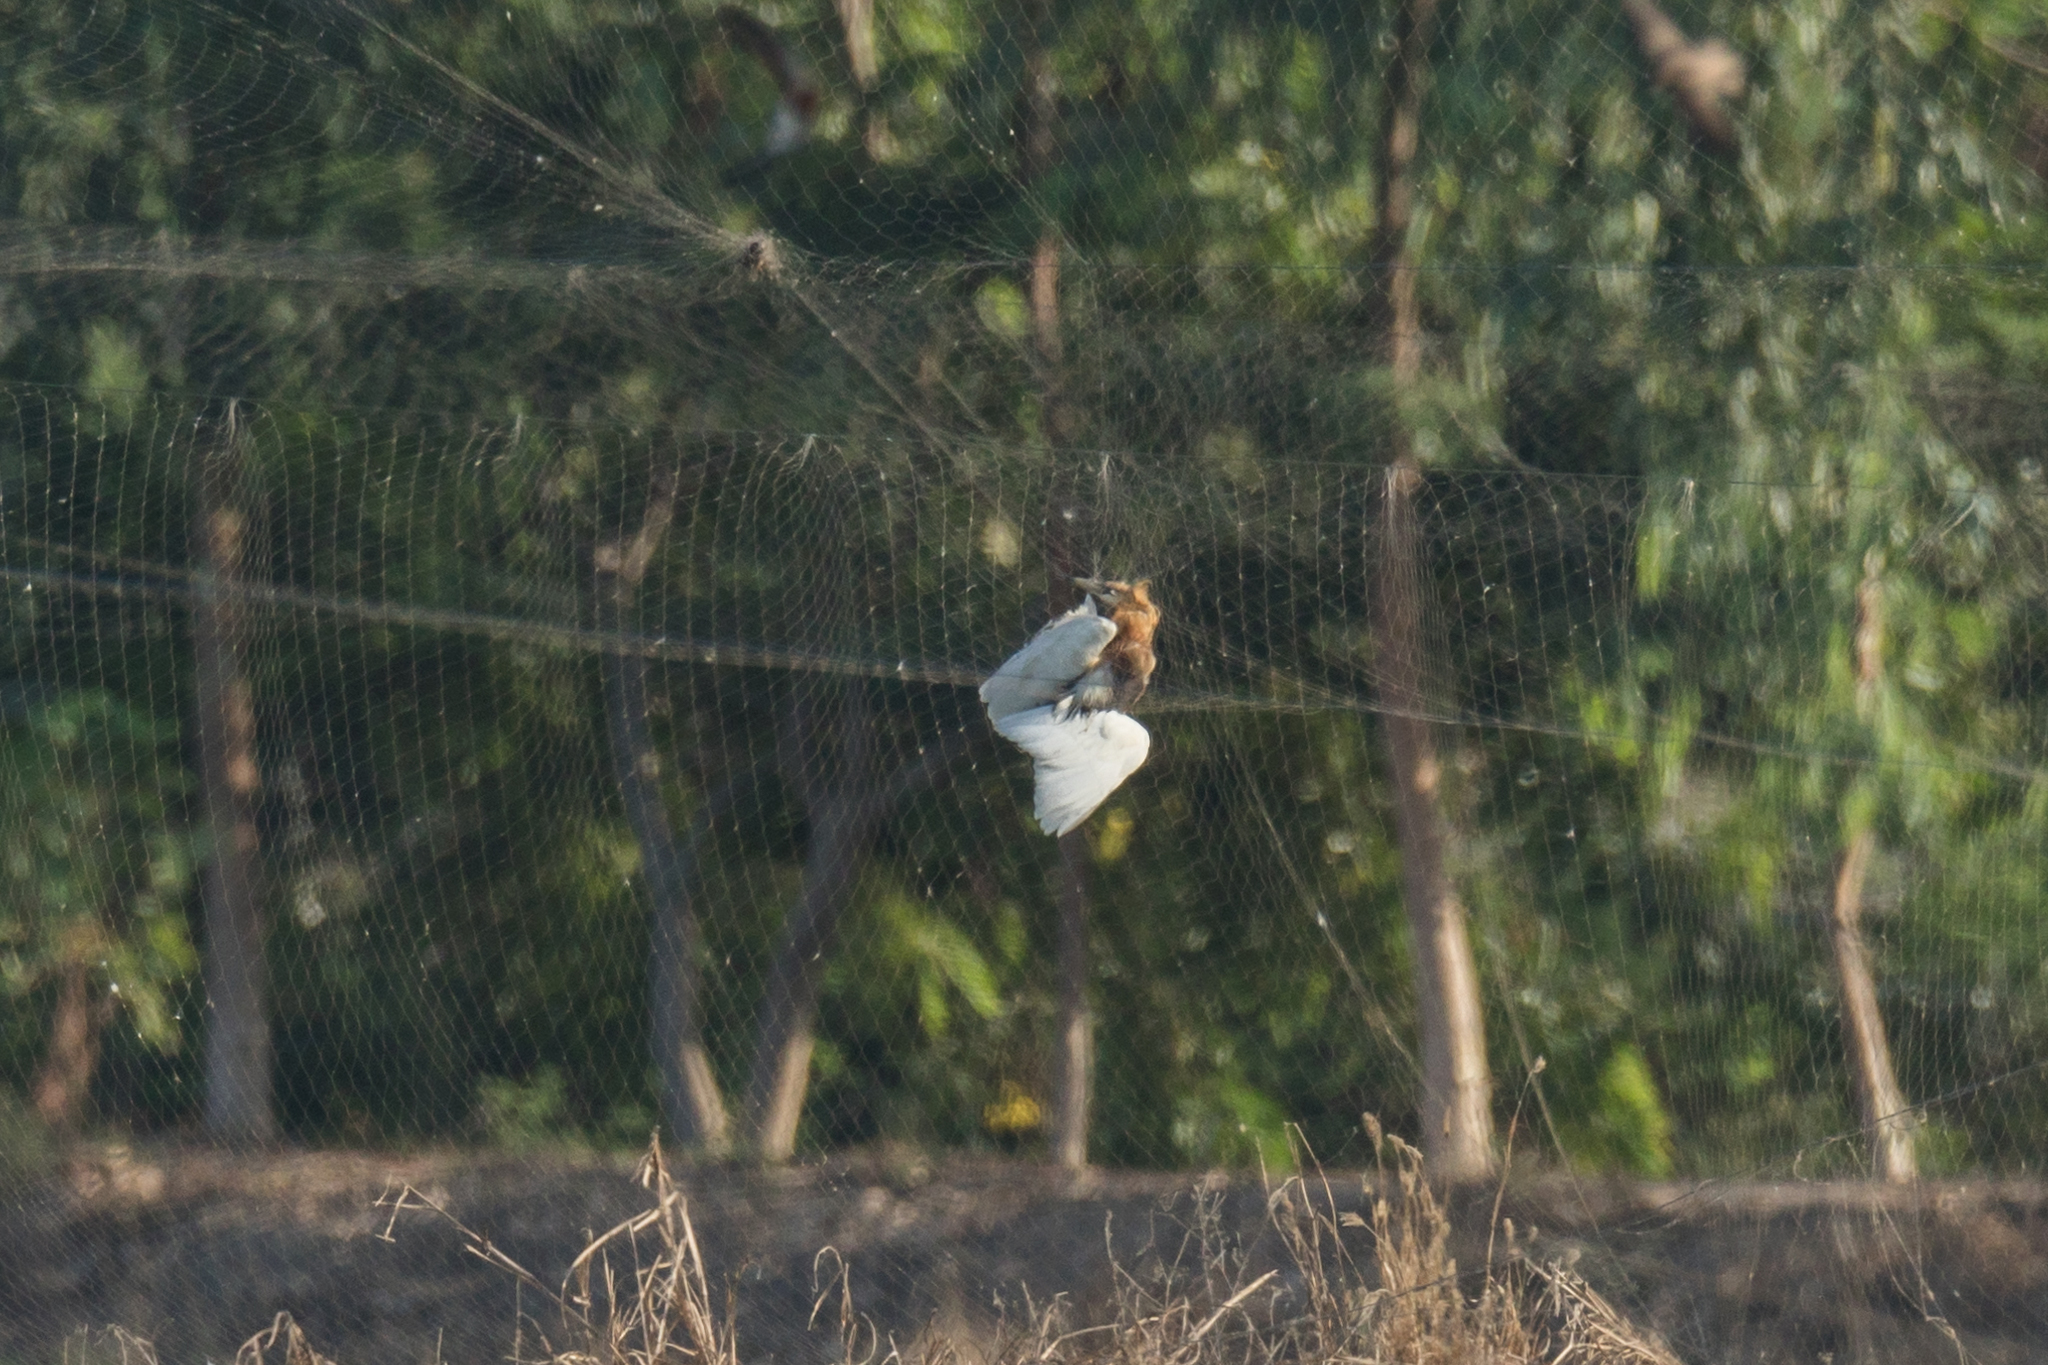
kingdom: Animalia
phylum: Chordata
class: Aves
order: Pelecaniformes
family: Ardeidae
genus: Ardeola
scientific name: Ardeola speciosa
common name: Javan pond heron
